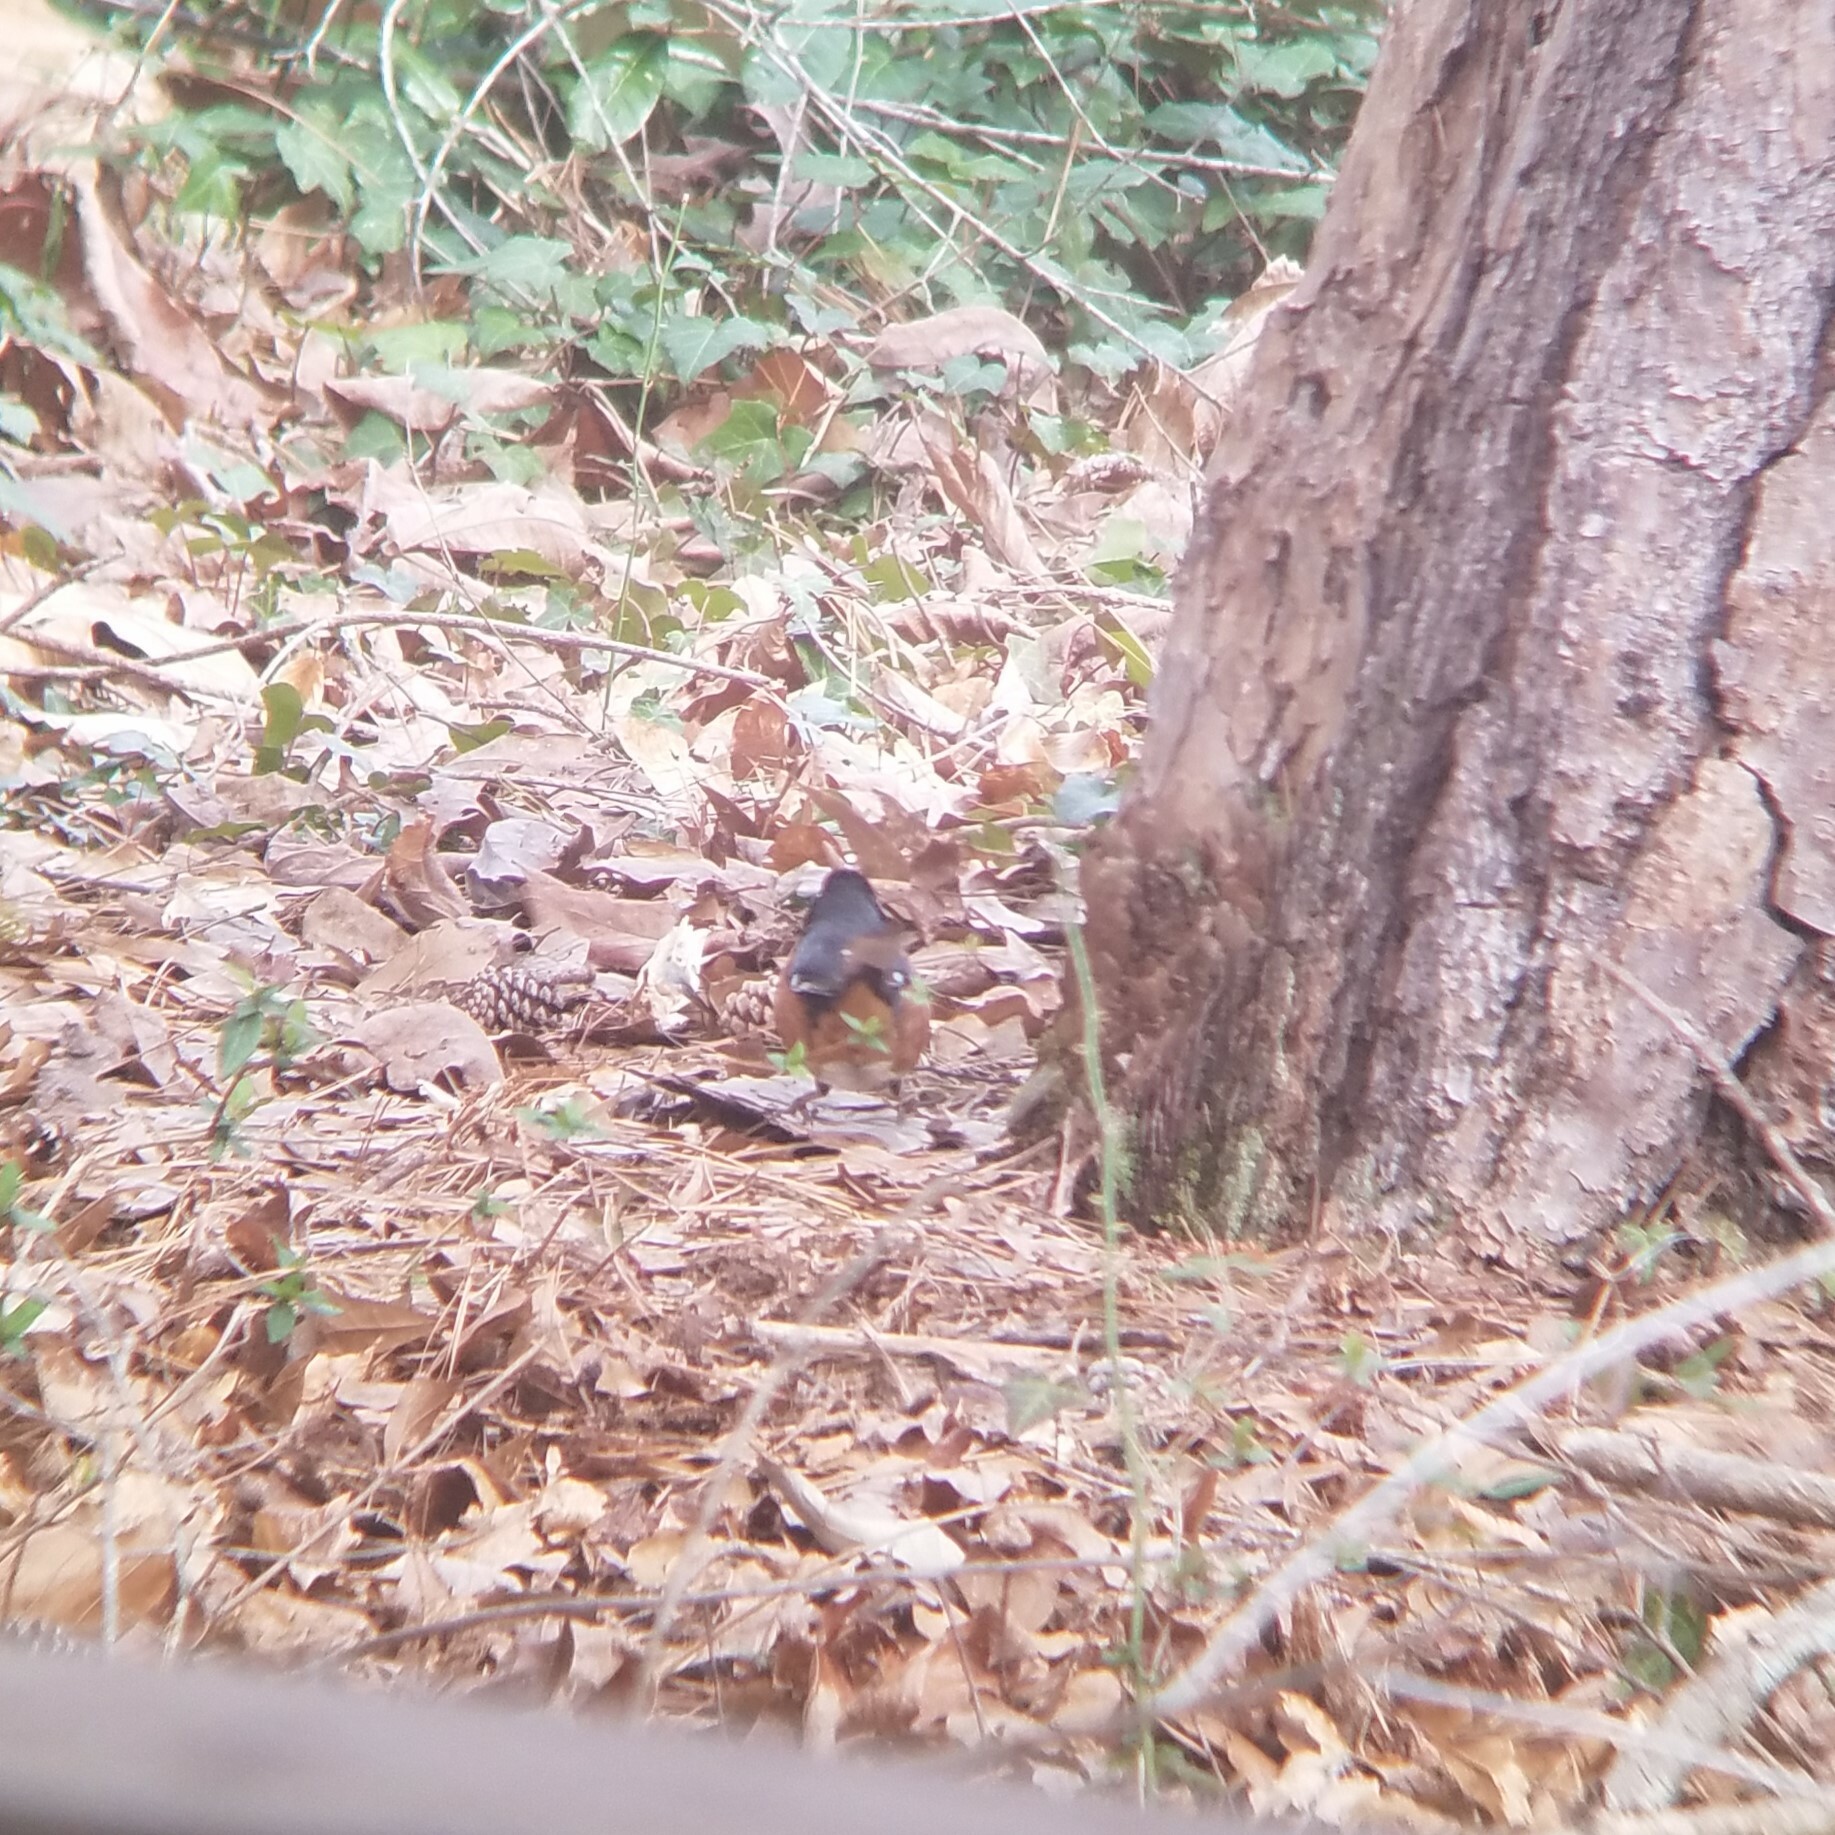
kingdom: Animalia
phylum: Chordata
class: Aves
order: Passeriformes
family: Passerellidae
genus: Pipilo
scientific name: Pipilo erythrophthalmus
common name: Eastern towhee
